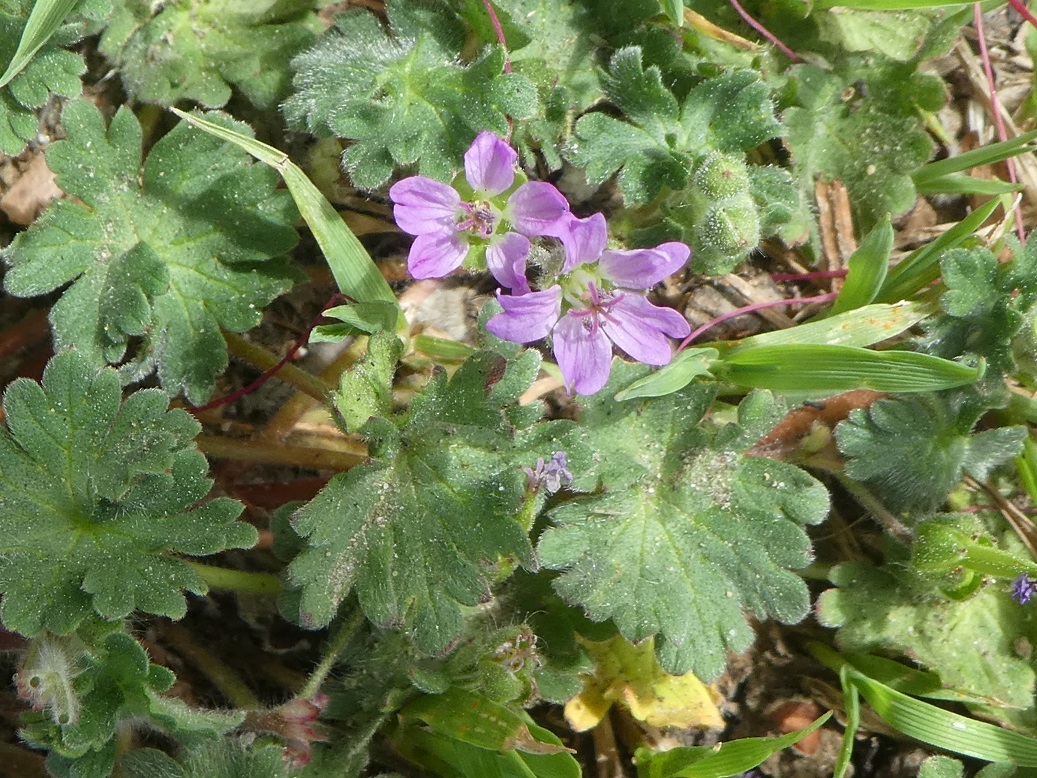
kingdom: Plantae
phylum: Tracheophyta
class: Magnoliopsida
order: Geraniales
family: Geraniaceae
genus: Geranium
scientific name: Geranium molle
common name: Dove's-foot crane's-bill
